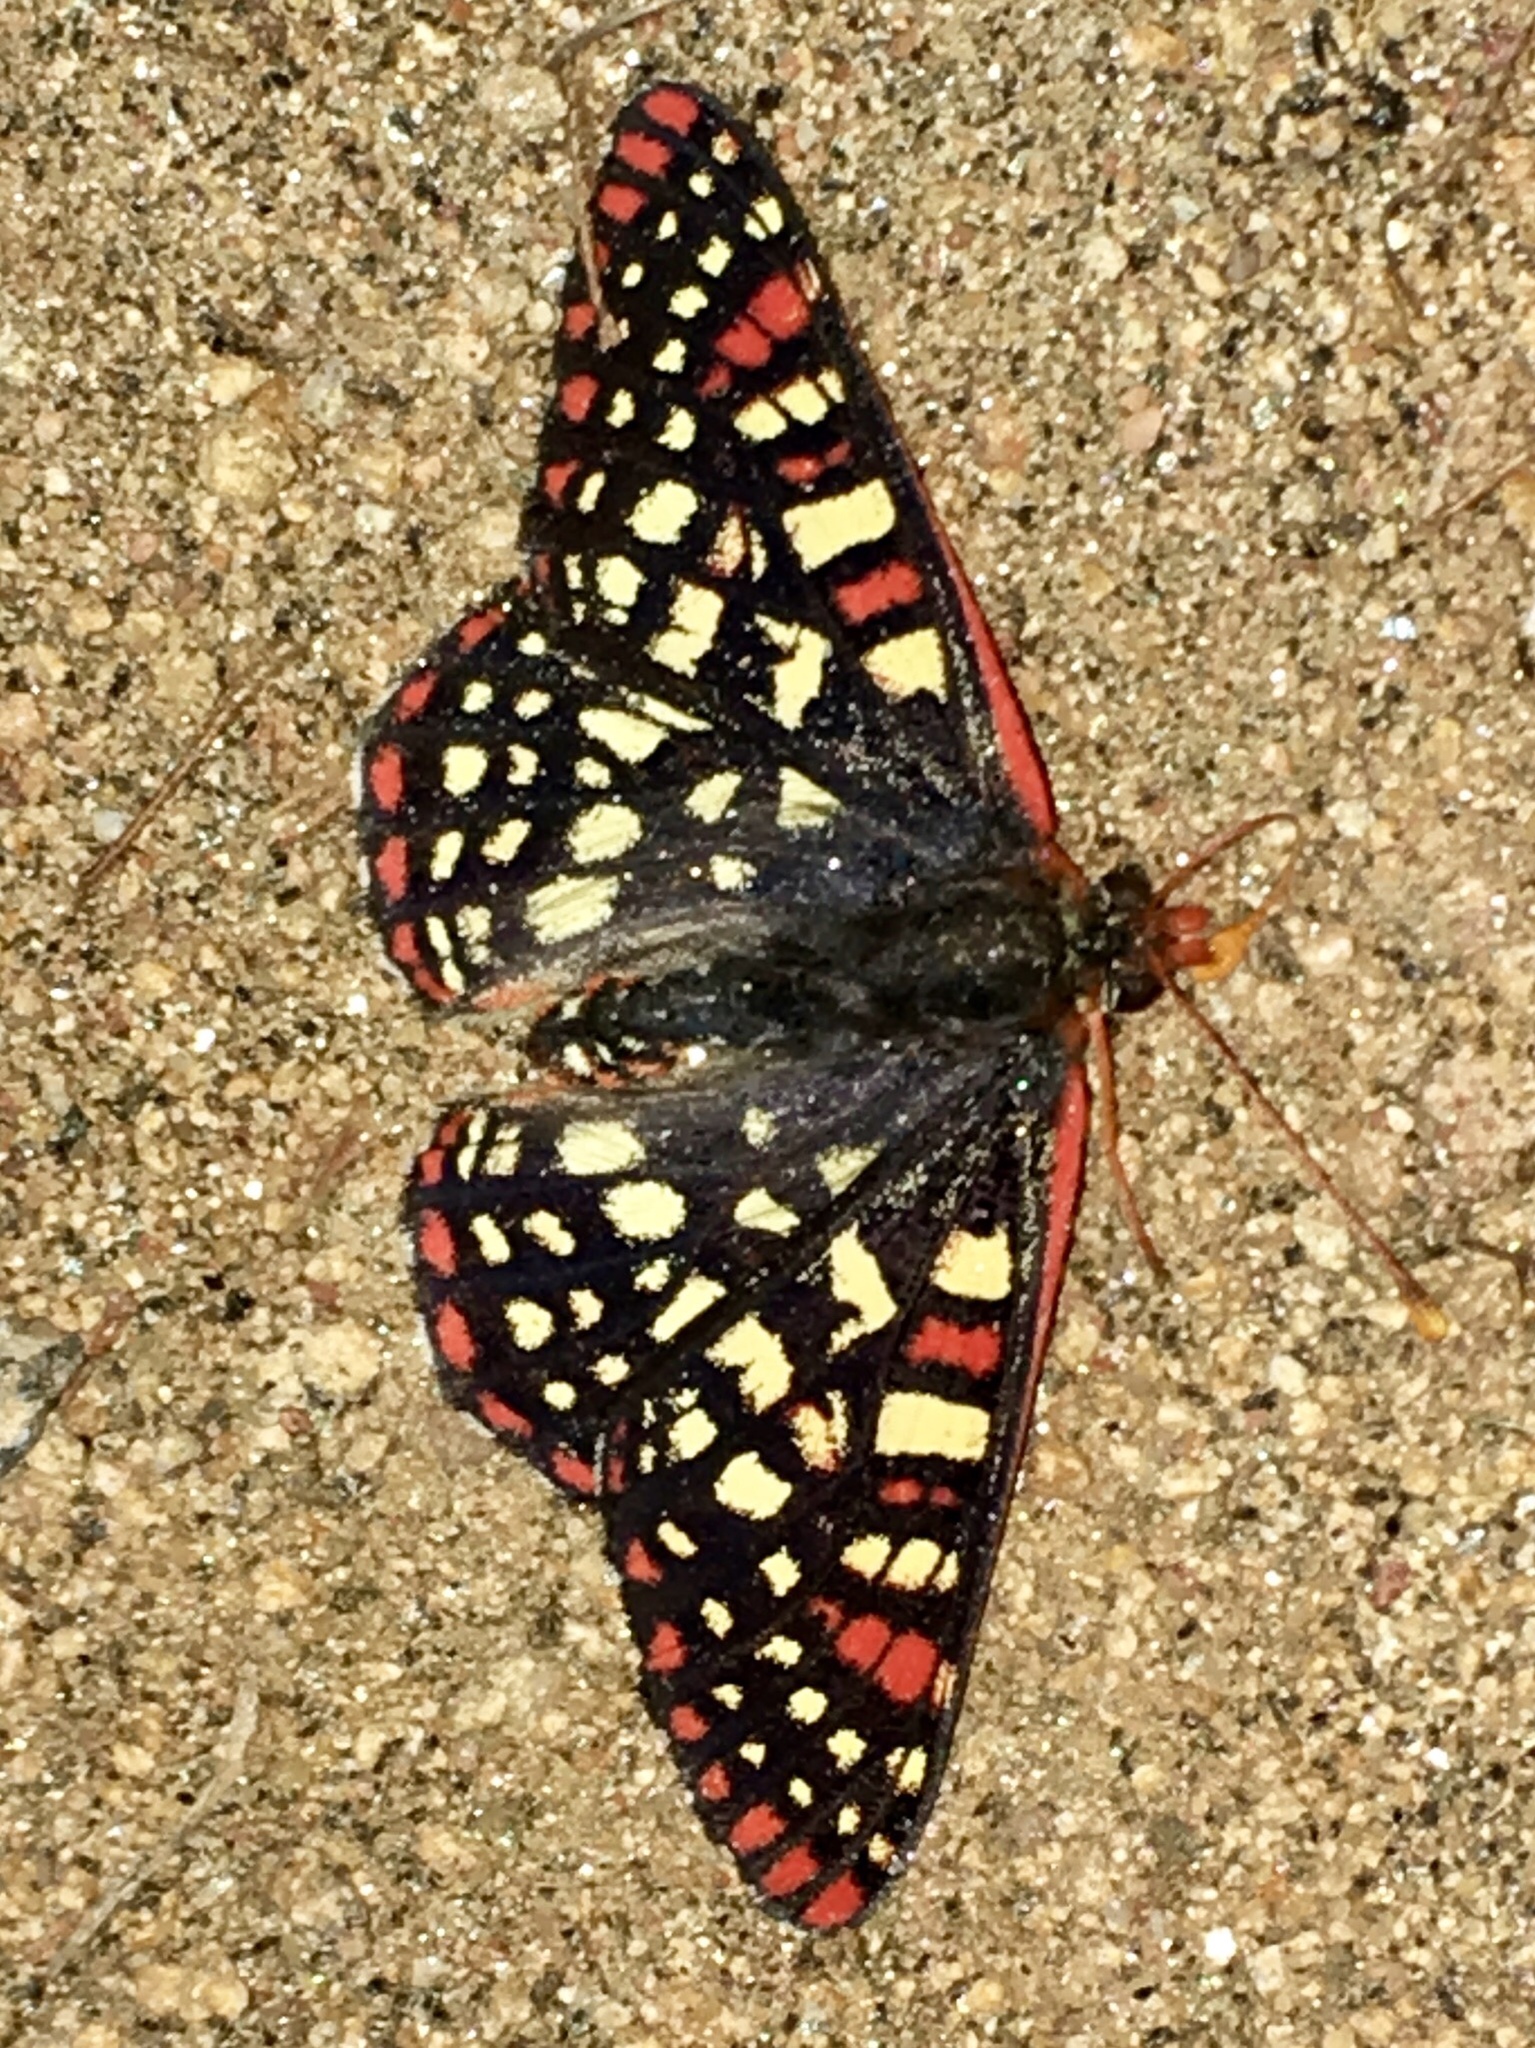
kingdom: Animalia
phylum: Arthropoda
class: Insecta
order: Lepidoptera
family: Nymphalidae
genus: Occidryas
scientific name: Occidryas chalcedona
